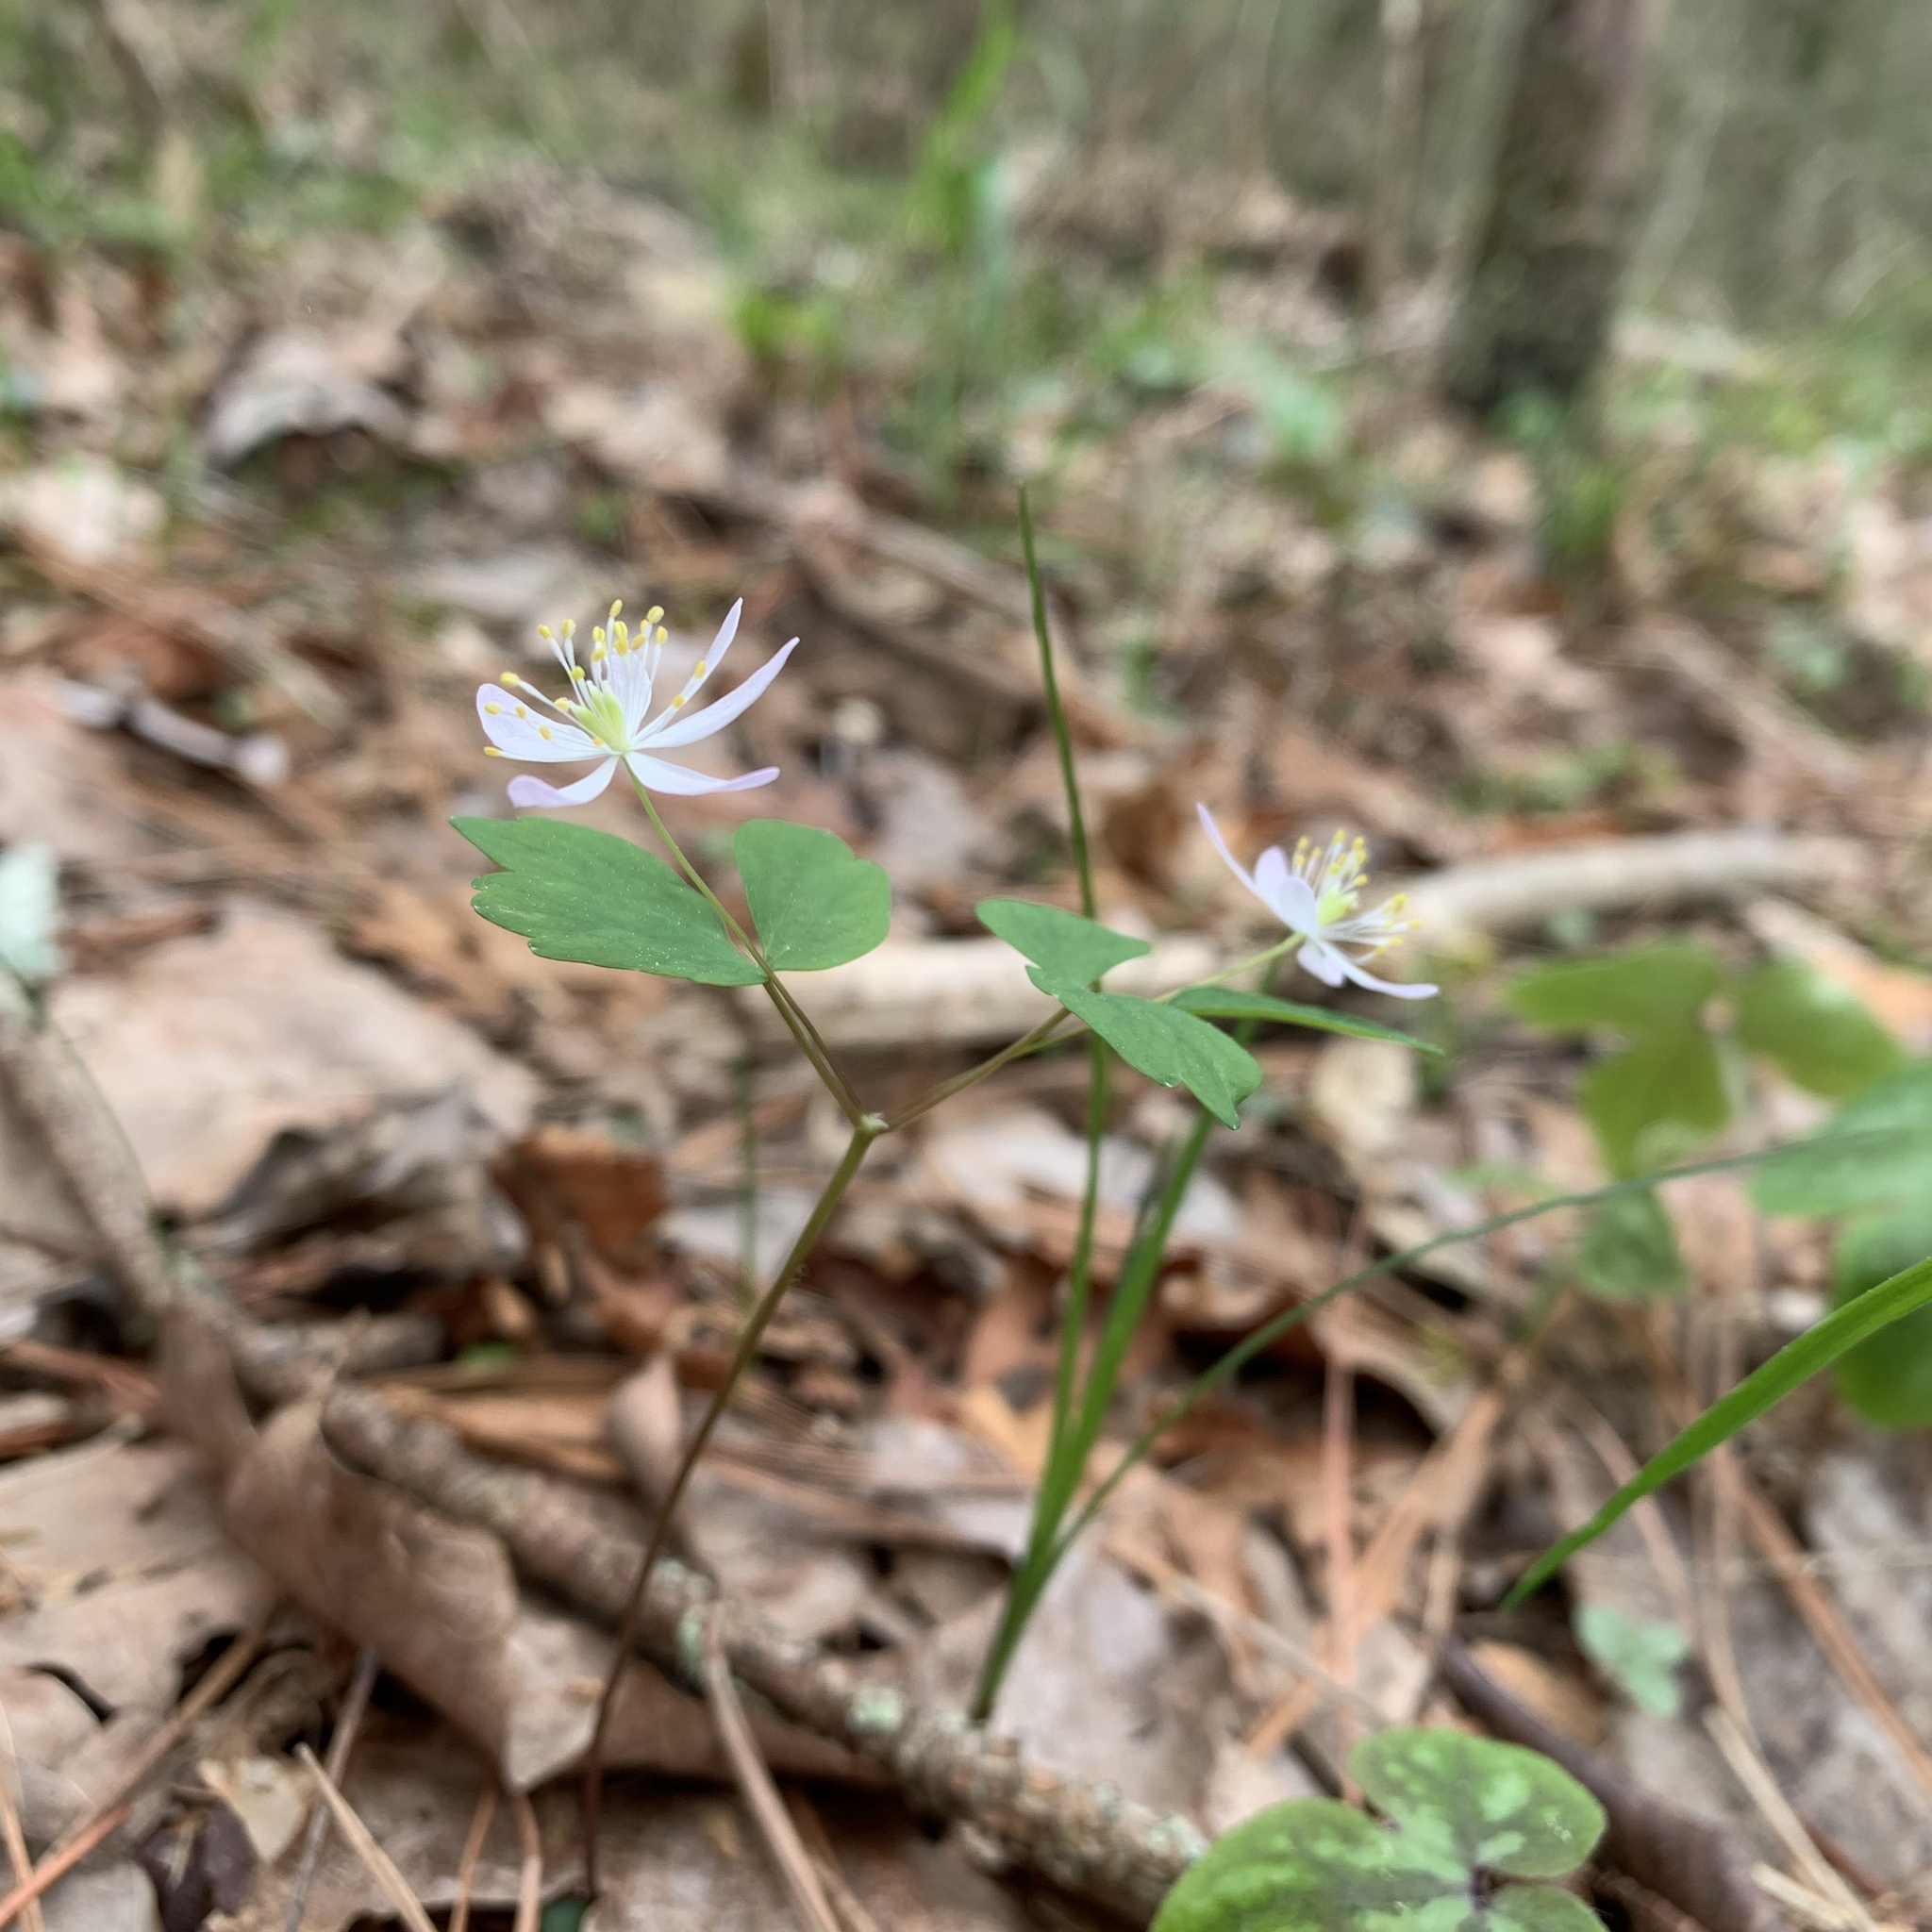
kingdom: Plantae
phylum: Tracheophyta
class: Magnoliopsida
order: Ranunculales
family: Ranunculaceae
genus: Thalictrum
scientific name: Thalictrum thalictroides
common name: Rue-anemone
